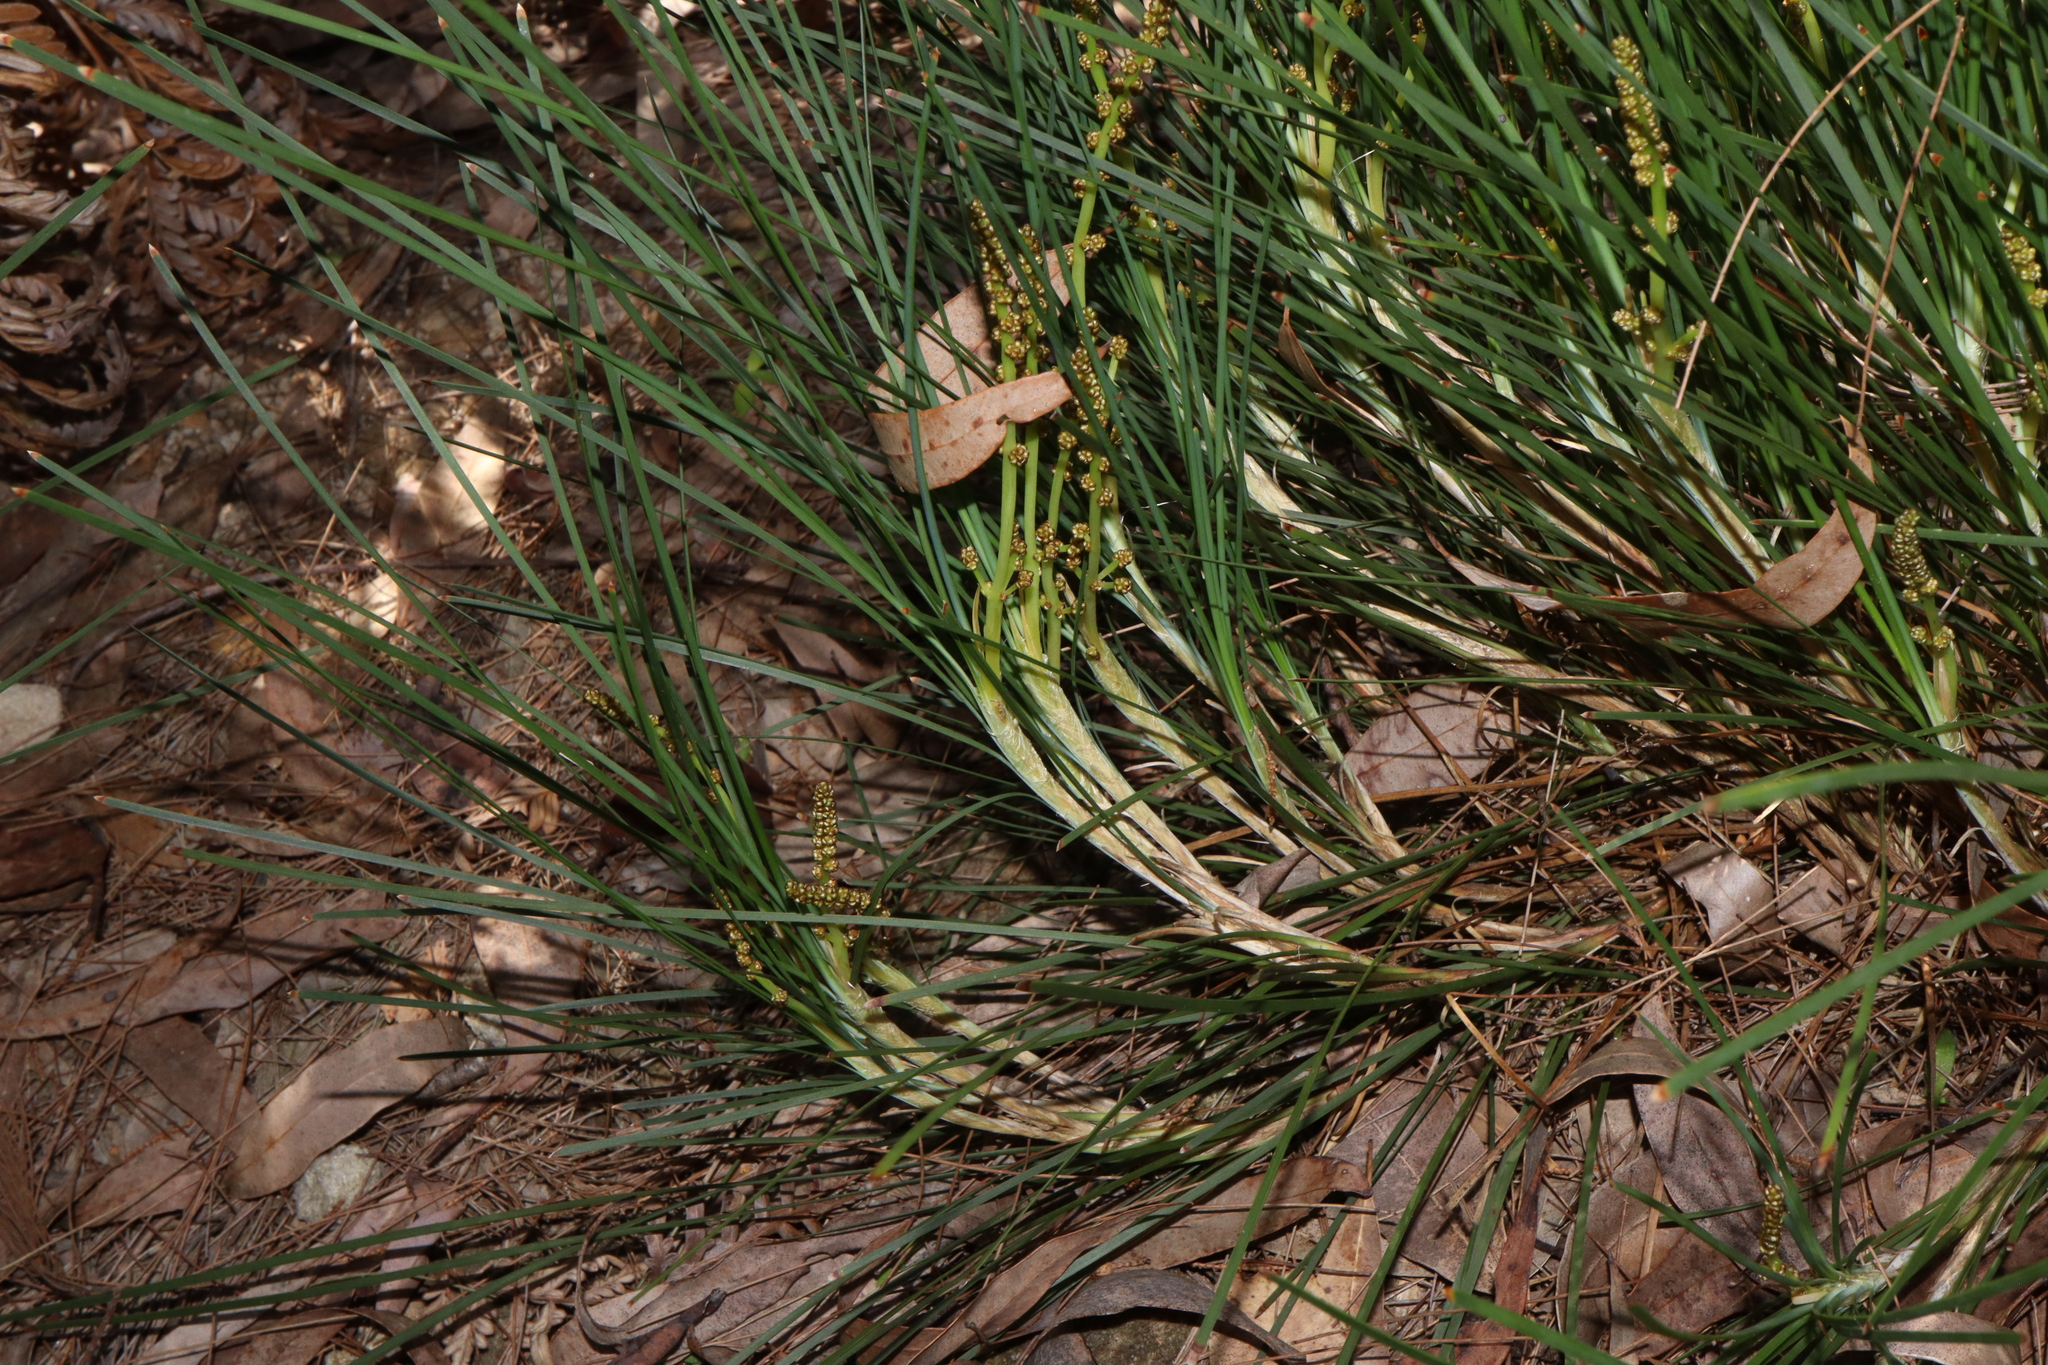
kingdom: Plantae
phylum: Tracheophyta
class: Liliopsida
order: Asparagales
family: Asparagaceae
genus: Lomandra
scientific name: Lomandra glauca
